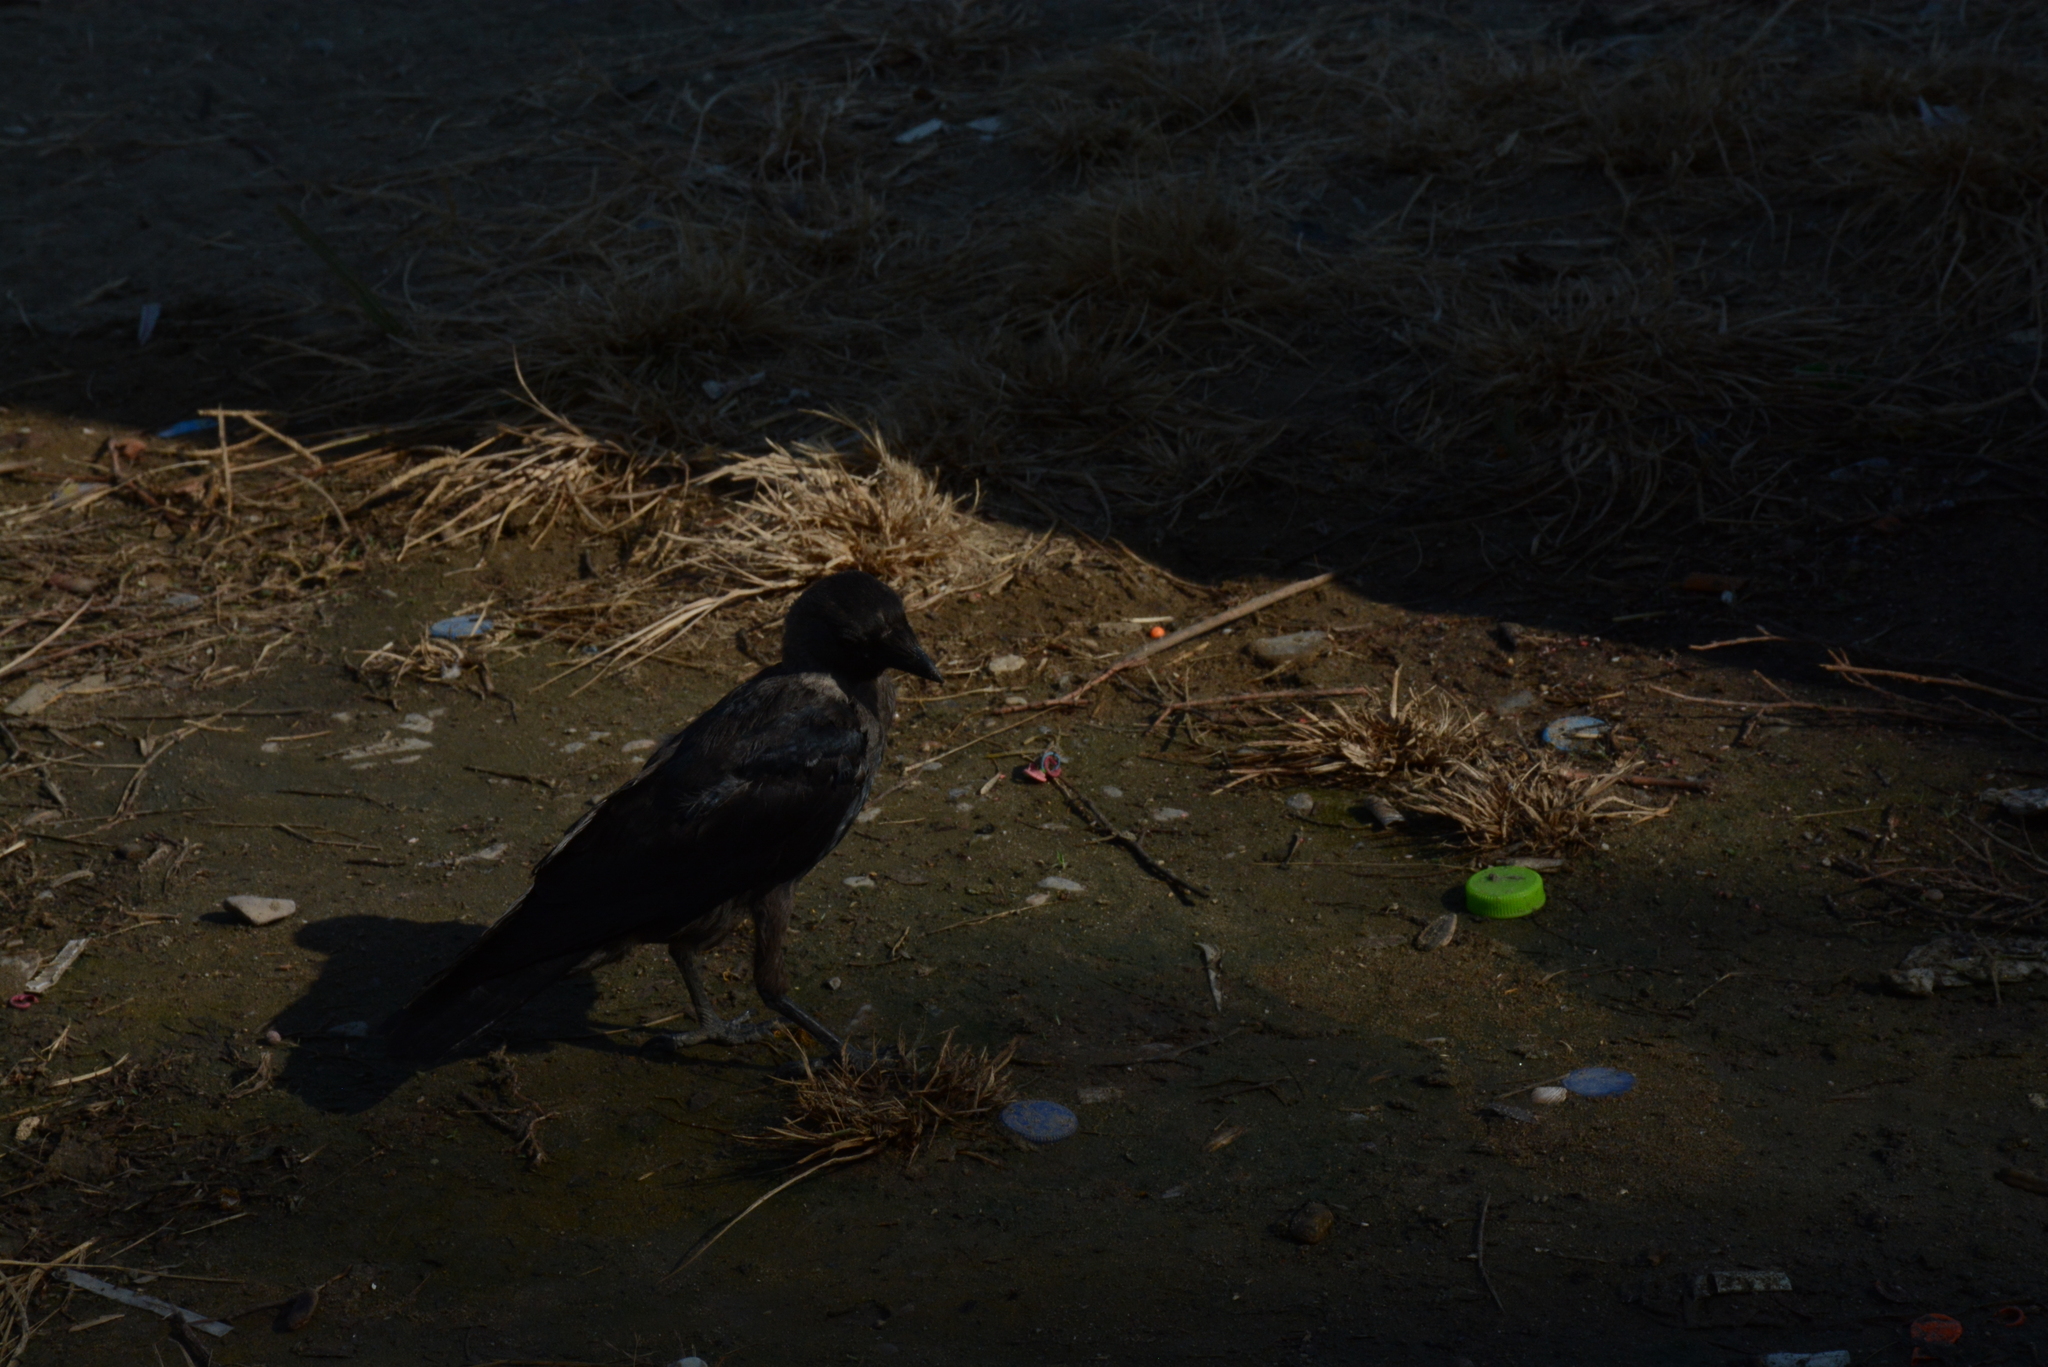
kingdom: Animalia
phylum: Chordata
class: Aves
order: Passeriformes
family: Corvidae
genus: Coloeus
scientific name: Coloeus monedula
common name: Western jackdaw
